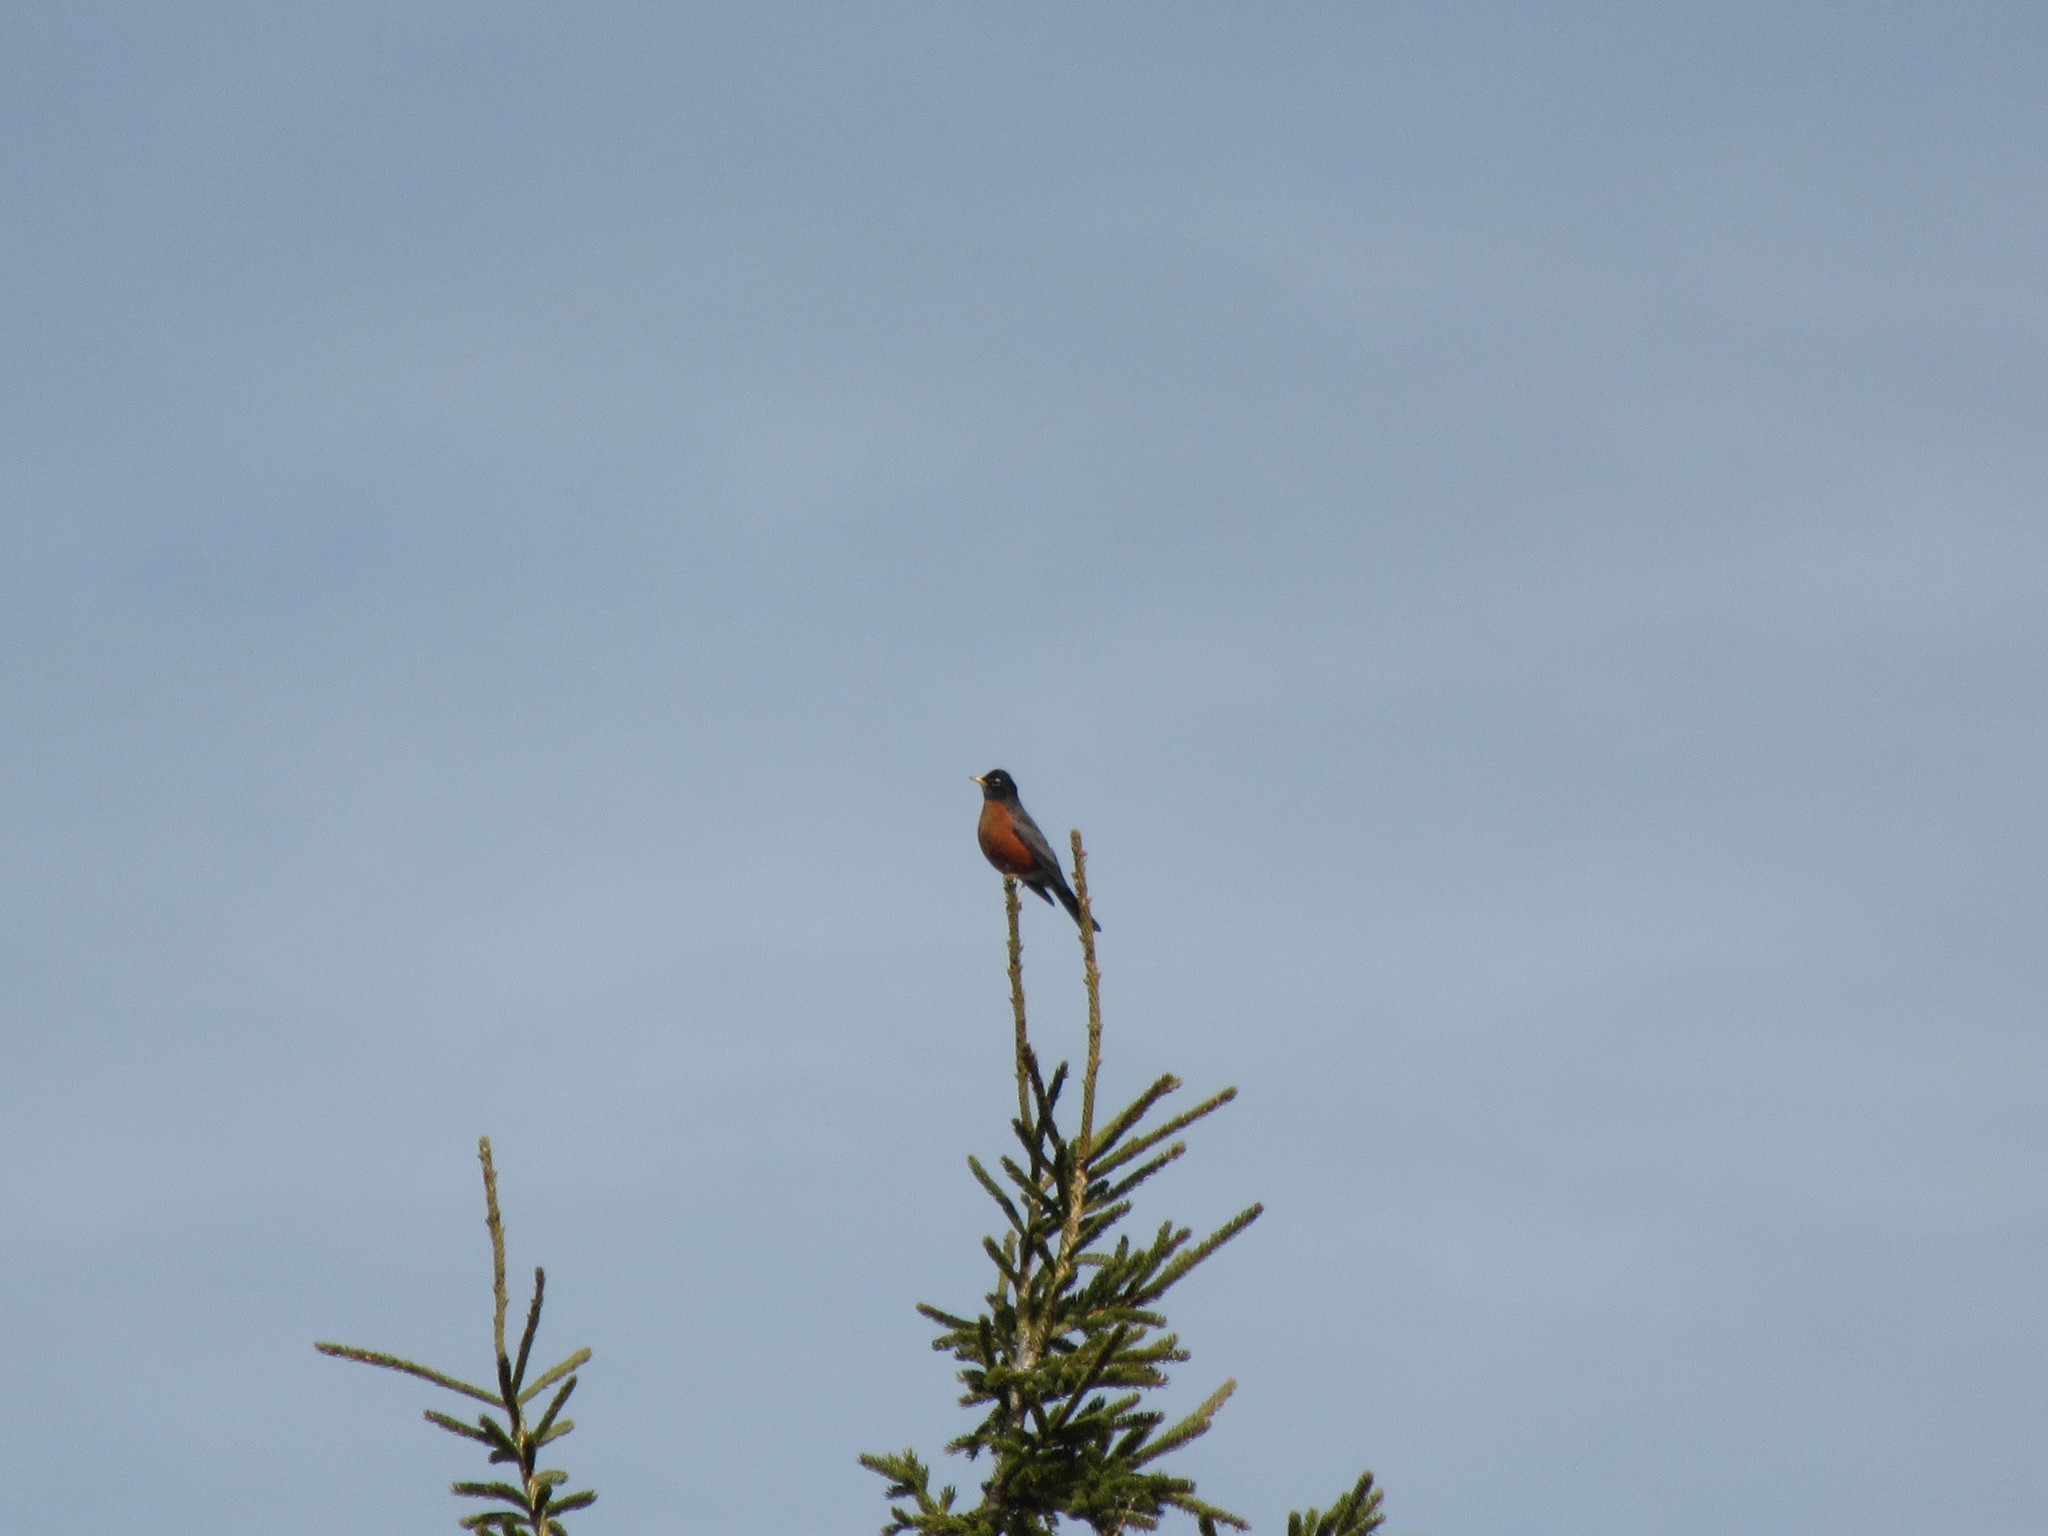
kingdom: Animalia
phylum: Chordata
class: Aves
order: Passeriformes
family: Turdidae
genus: Turdus
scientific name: Turdus migratorius
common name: American robin
